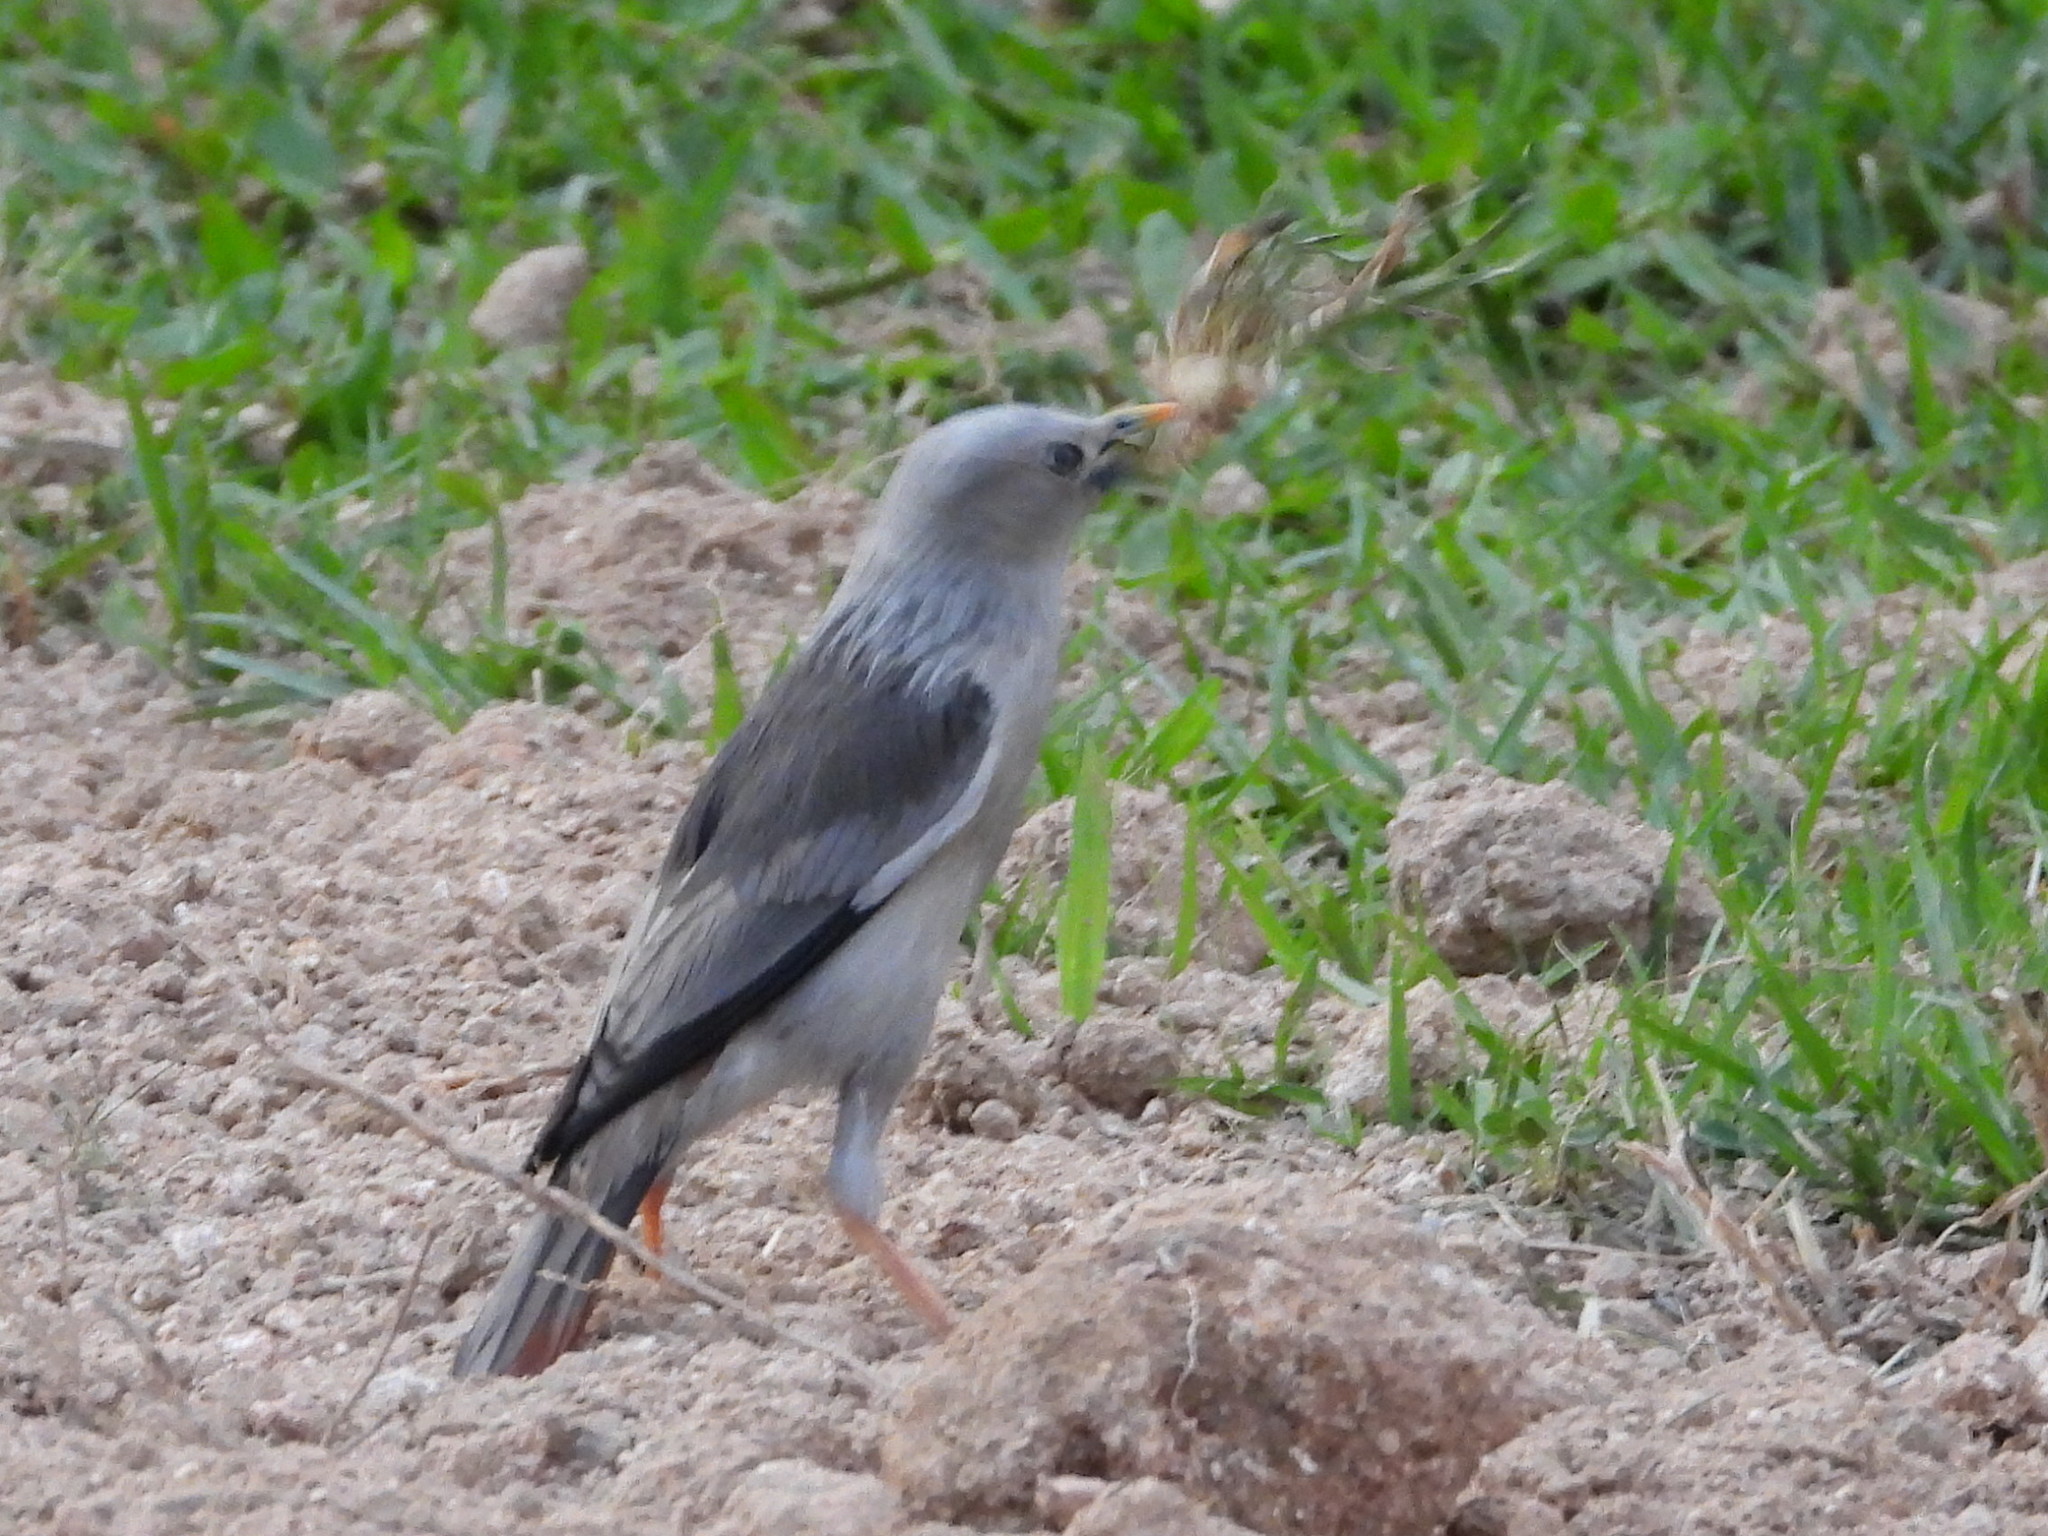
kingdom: Animalia
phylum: Chordata
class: Aves
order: Passeriformes
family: Sturnidae
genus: Sturnia
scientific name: Sturnia malabarica
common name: Chestnut-tailed starling
